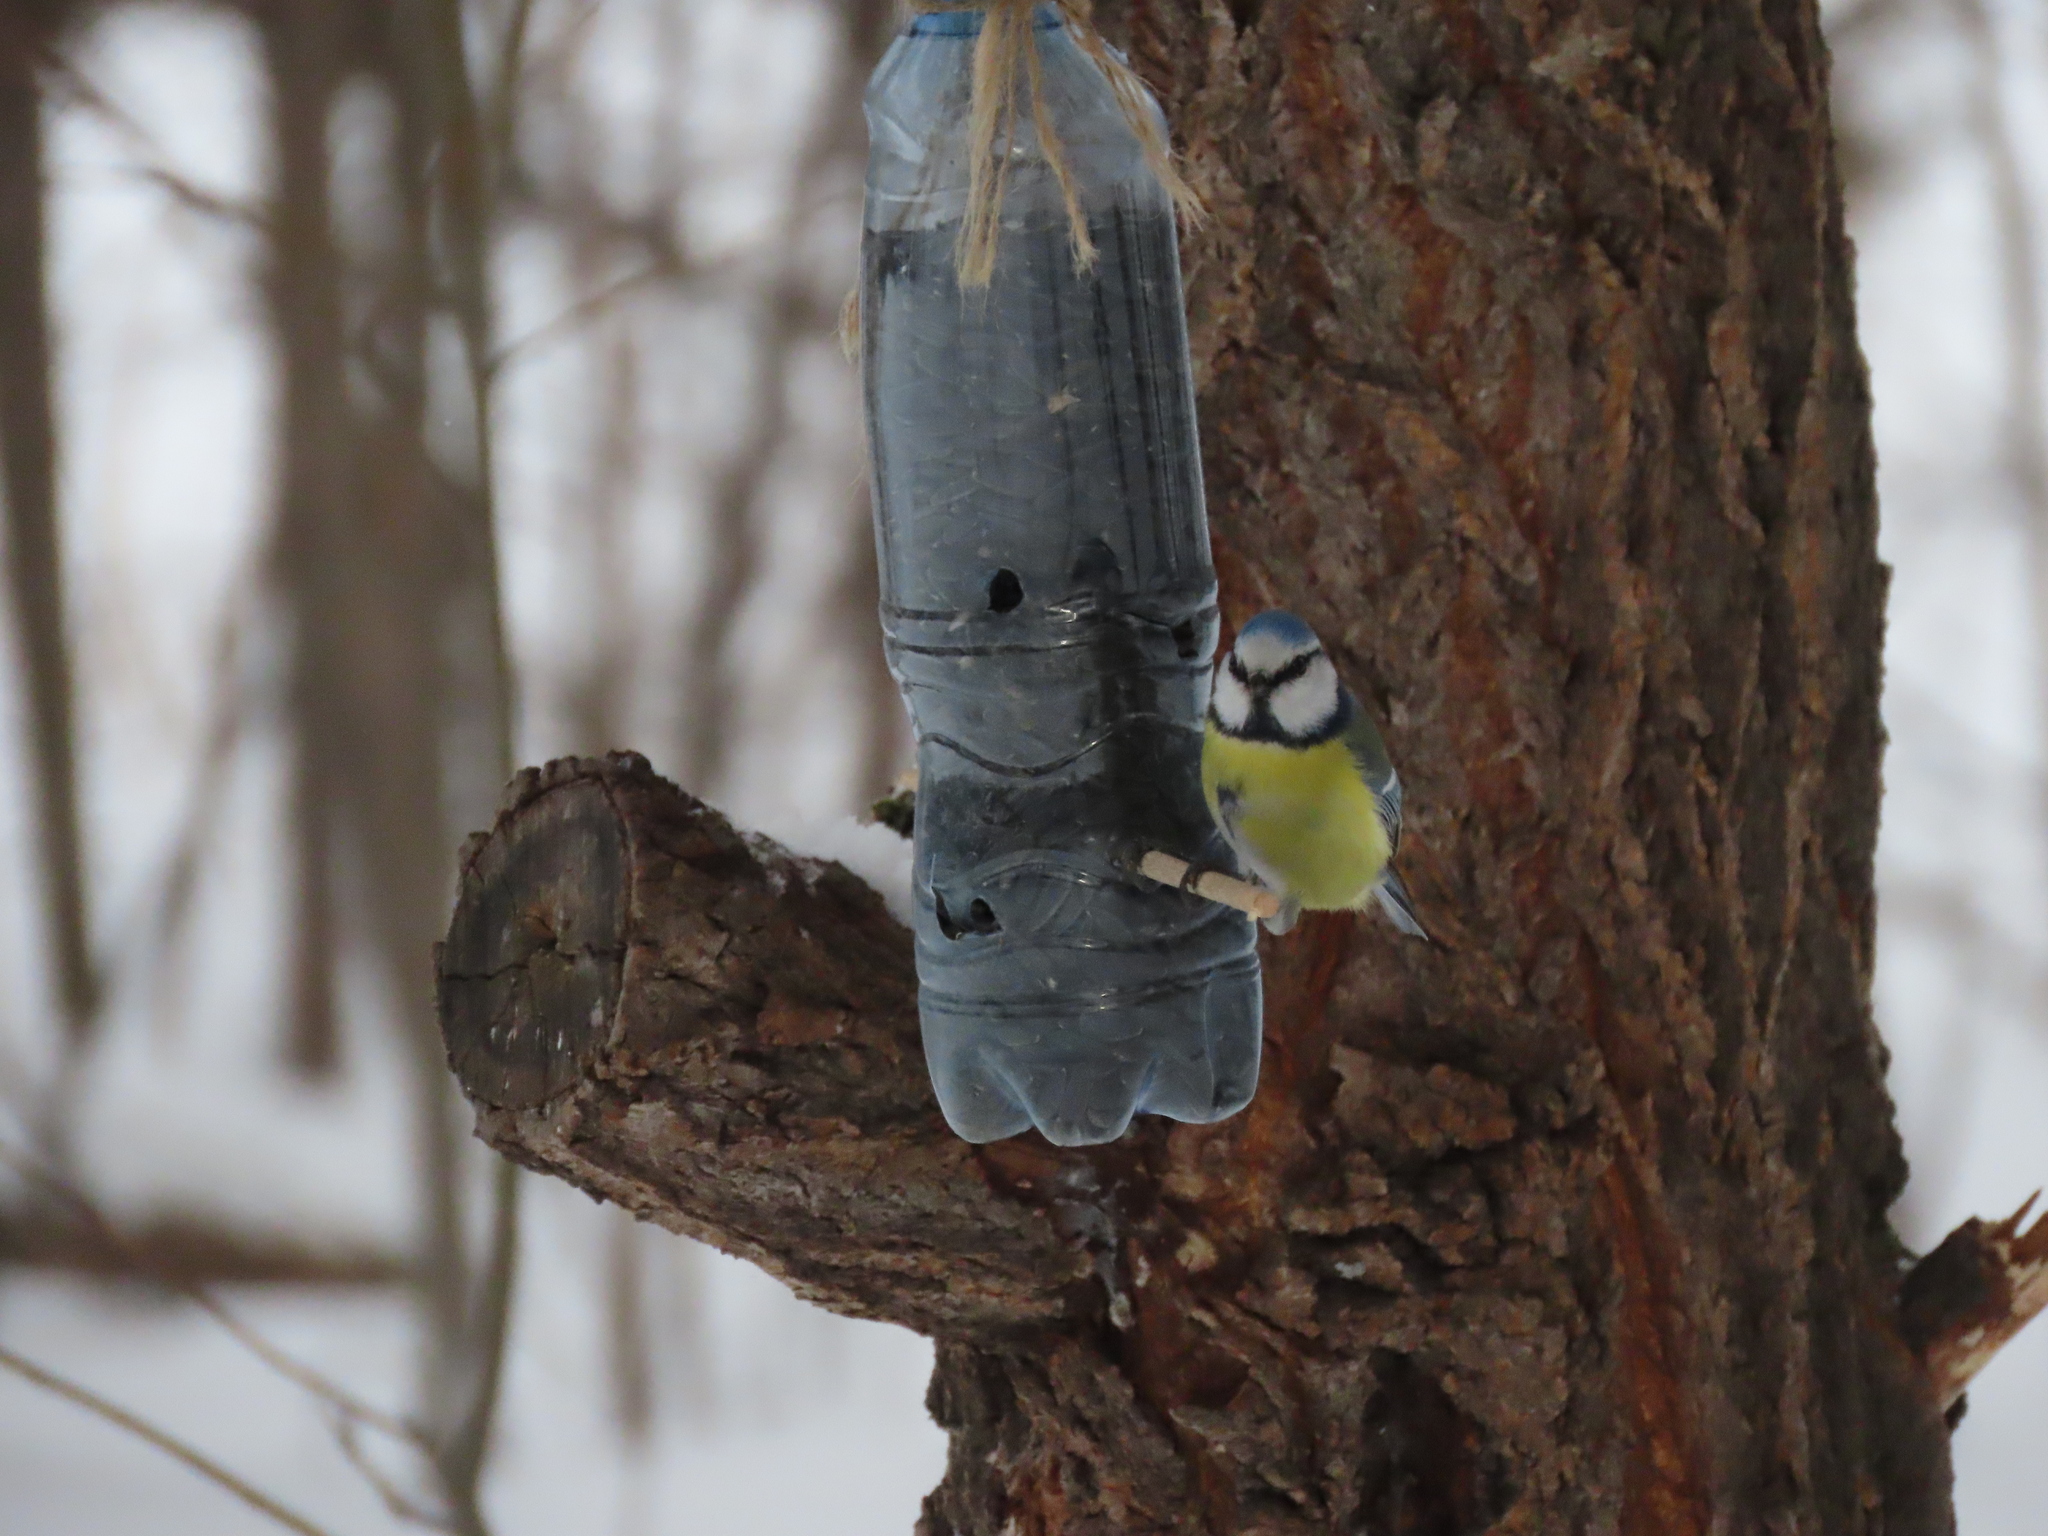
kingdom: Animalia
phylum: Chordata
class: Aves
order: Passeriformes
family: Paridae
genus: Cyanistes
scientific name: Cyanistes caeruleus
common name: Eurasian blue tit
